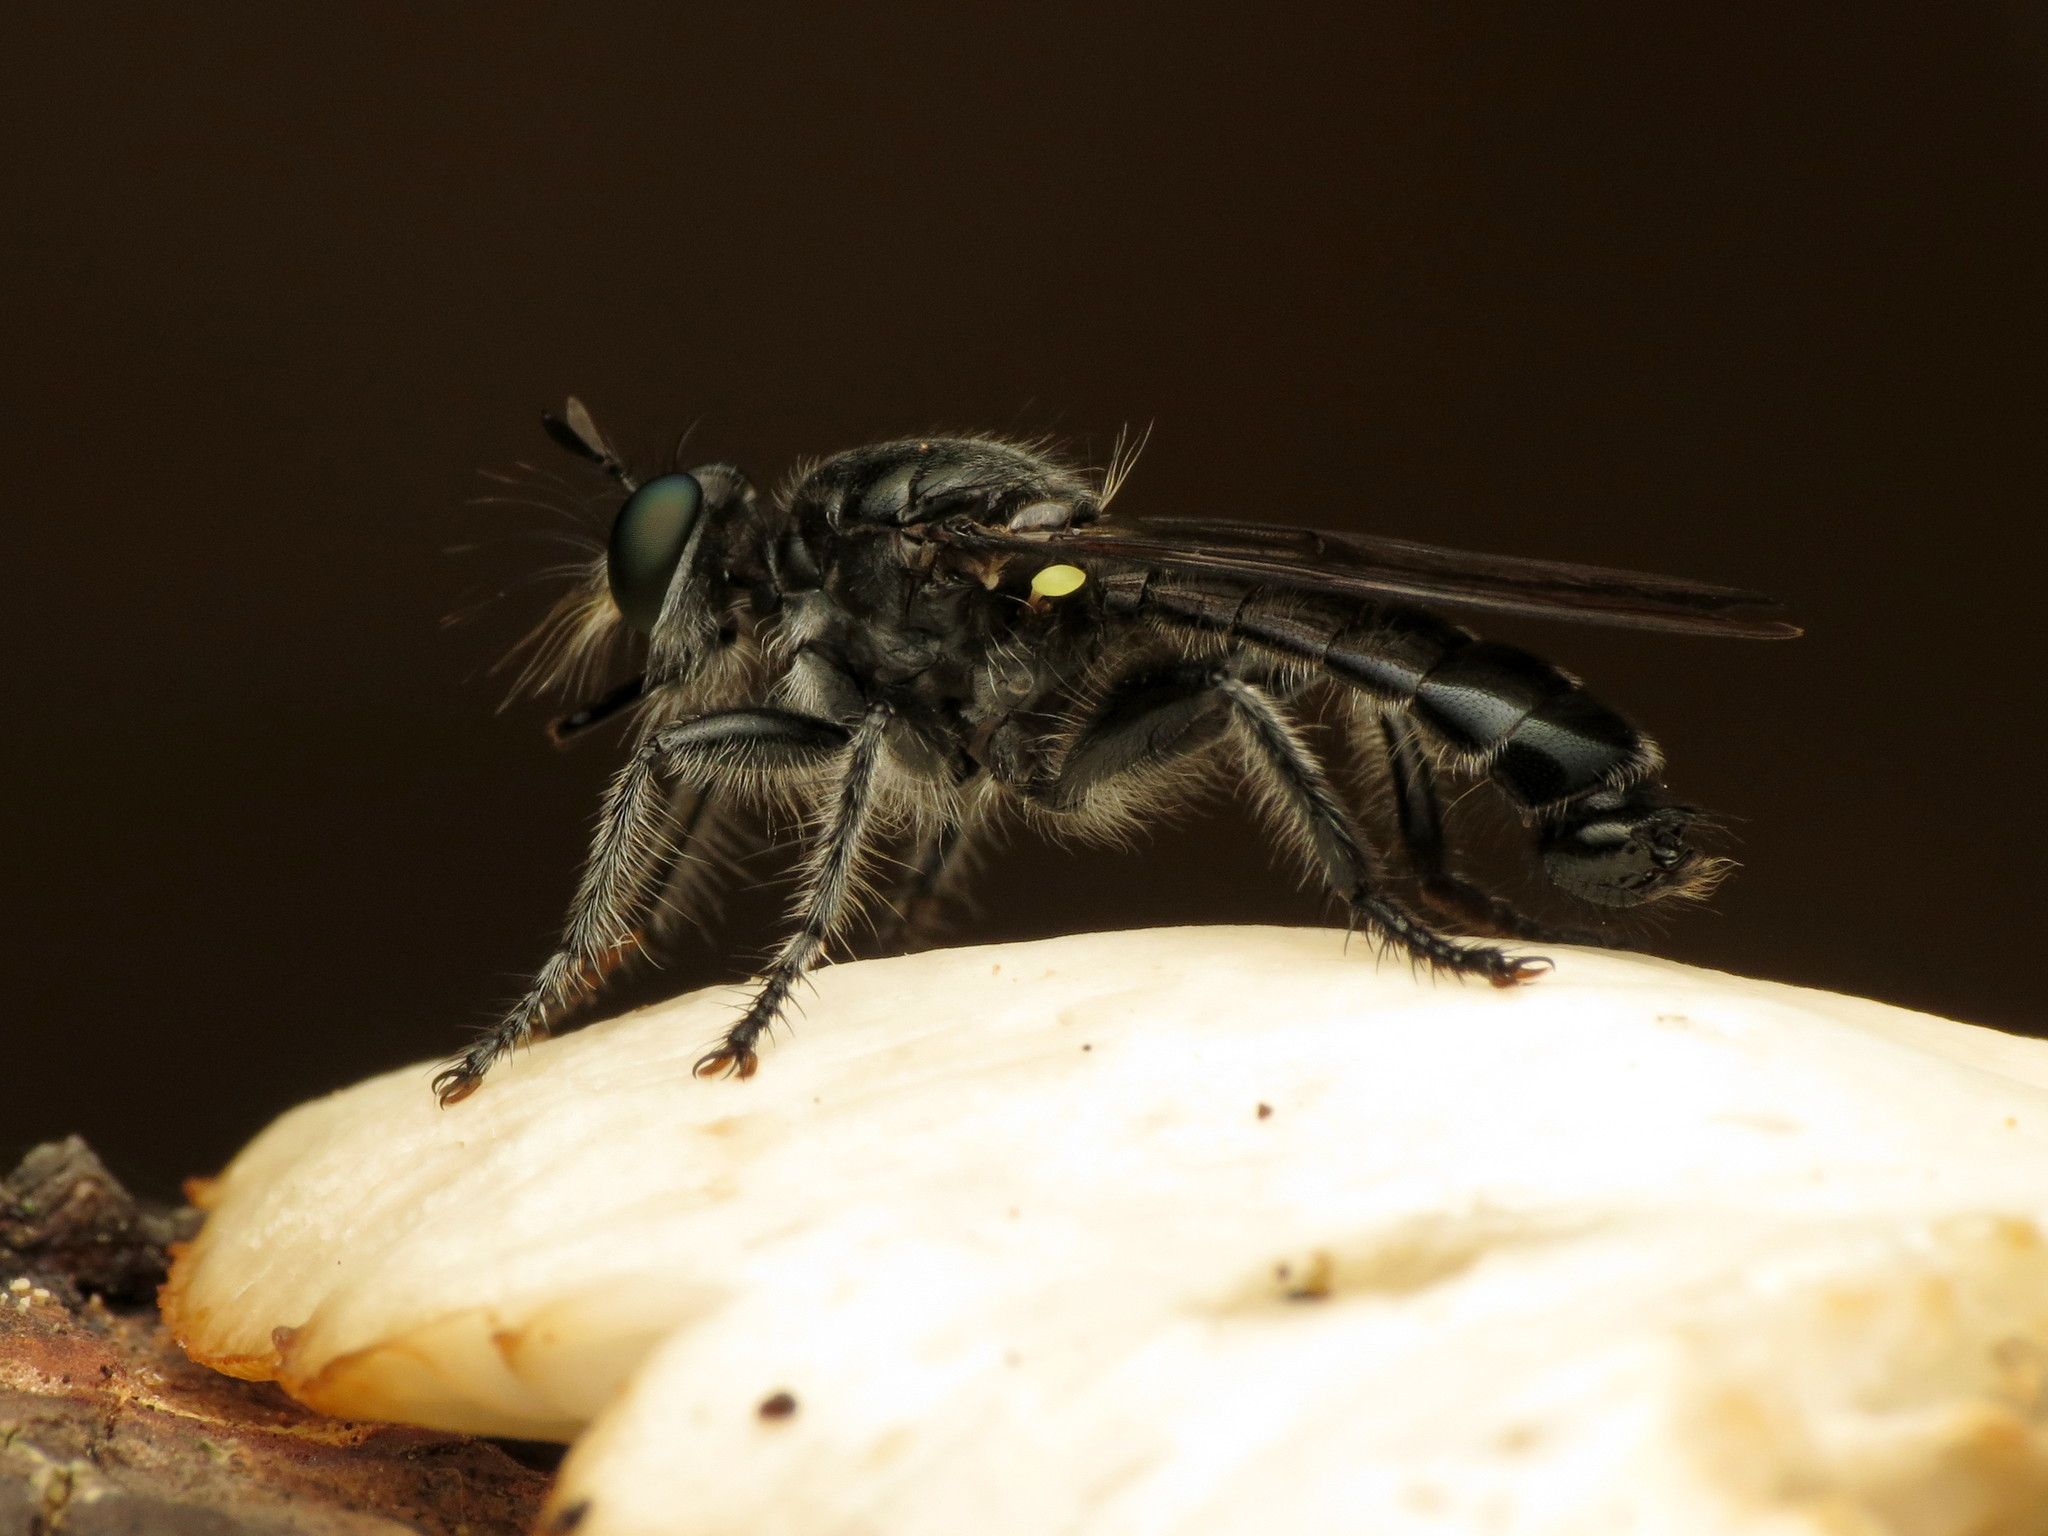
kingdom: Animalia
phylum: Arthropoda
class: Insecta
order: Diptera
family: Asilidae
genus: Laphria
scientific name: Laphria sicula
